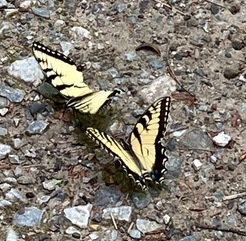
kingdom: Animalia
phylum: Arthropoda
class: Insecta
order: Lepidoptera
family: Papilionidae
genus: Papilio
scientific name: Papilio glaucus
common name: Tiger swallowtail
